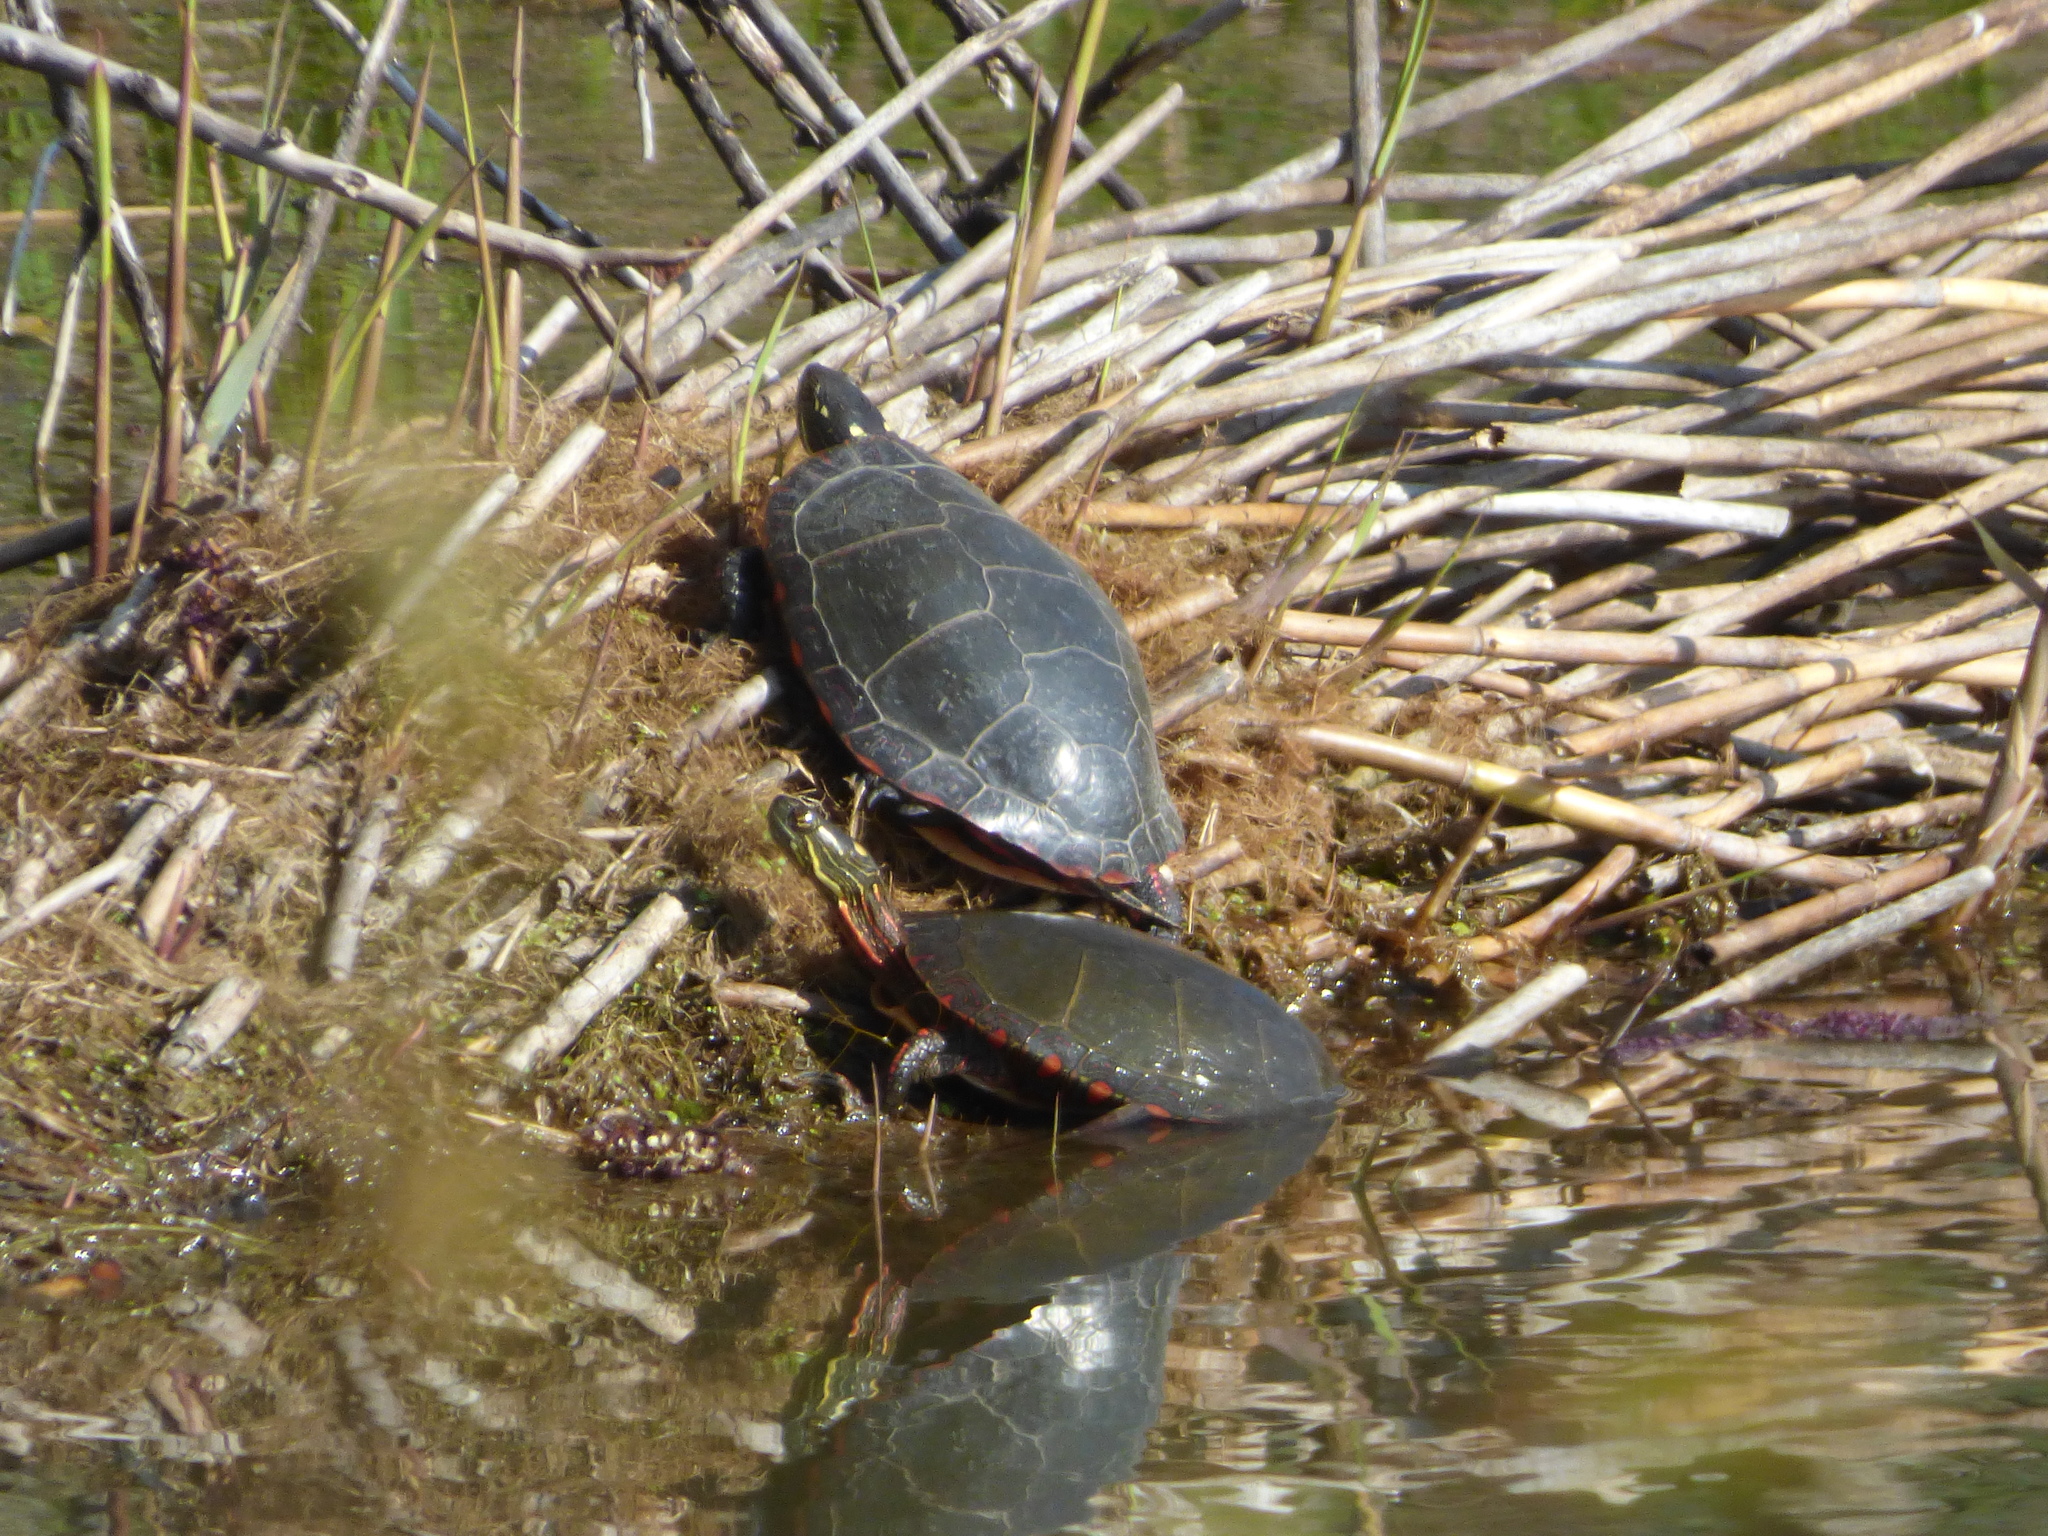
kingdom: Animalia
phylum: Chordata
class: Testudines
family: Emydidae
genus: Chrysemys
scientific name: Chrysemys picta
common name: Painted turtle
